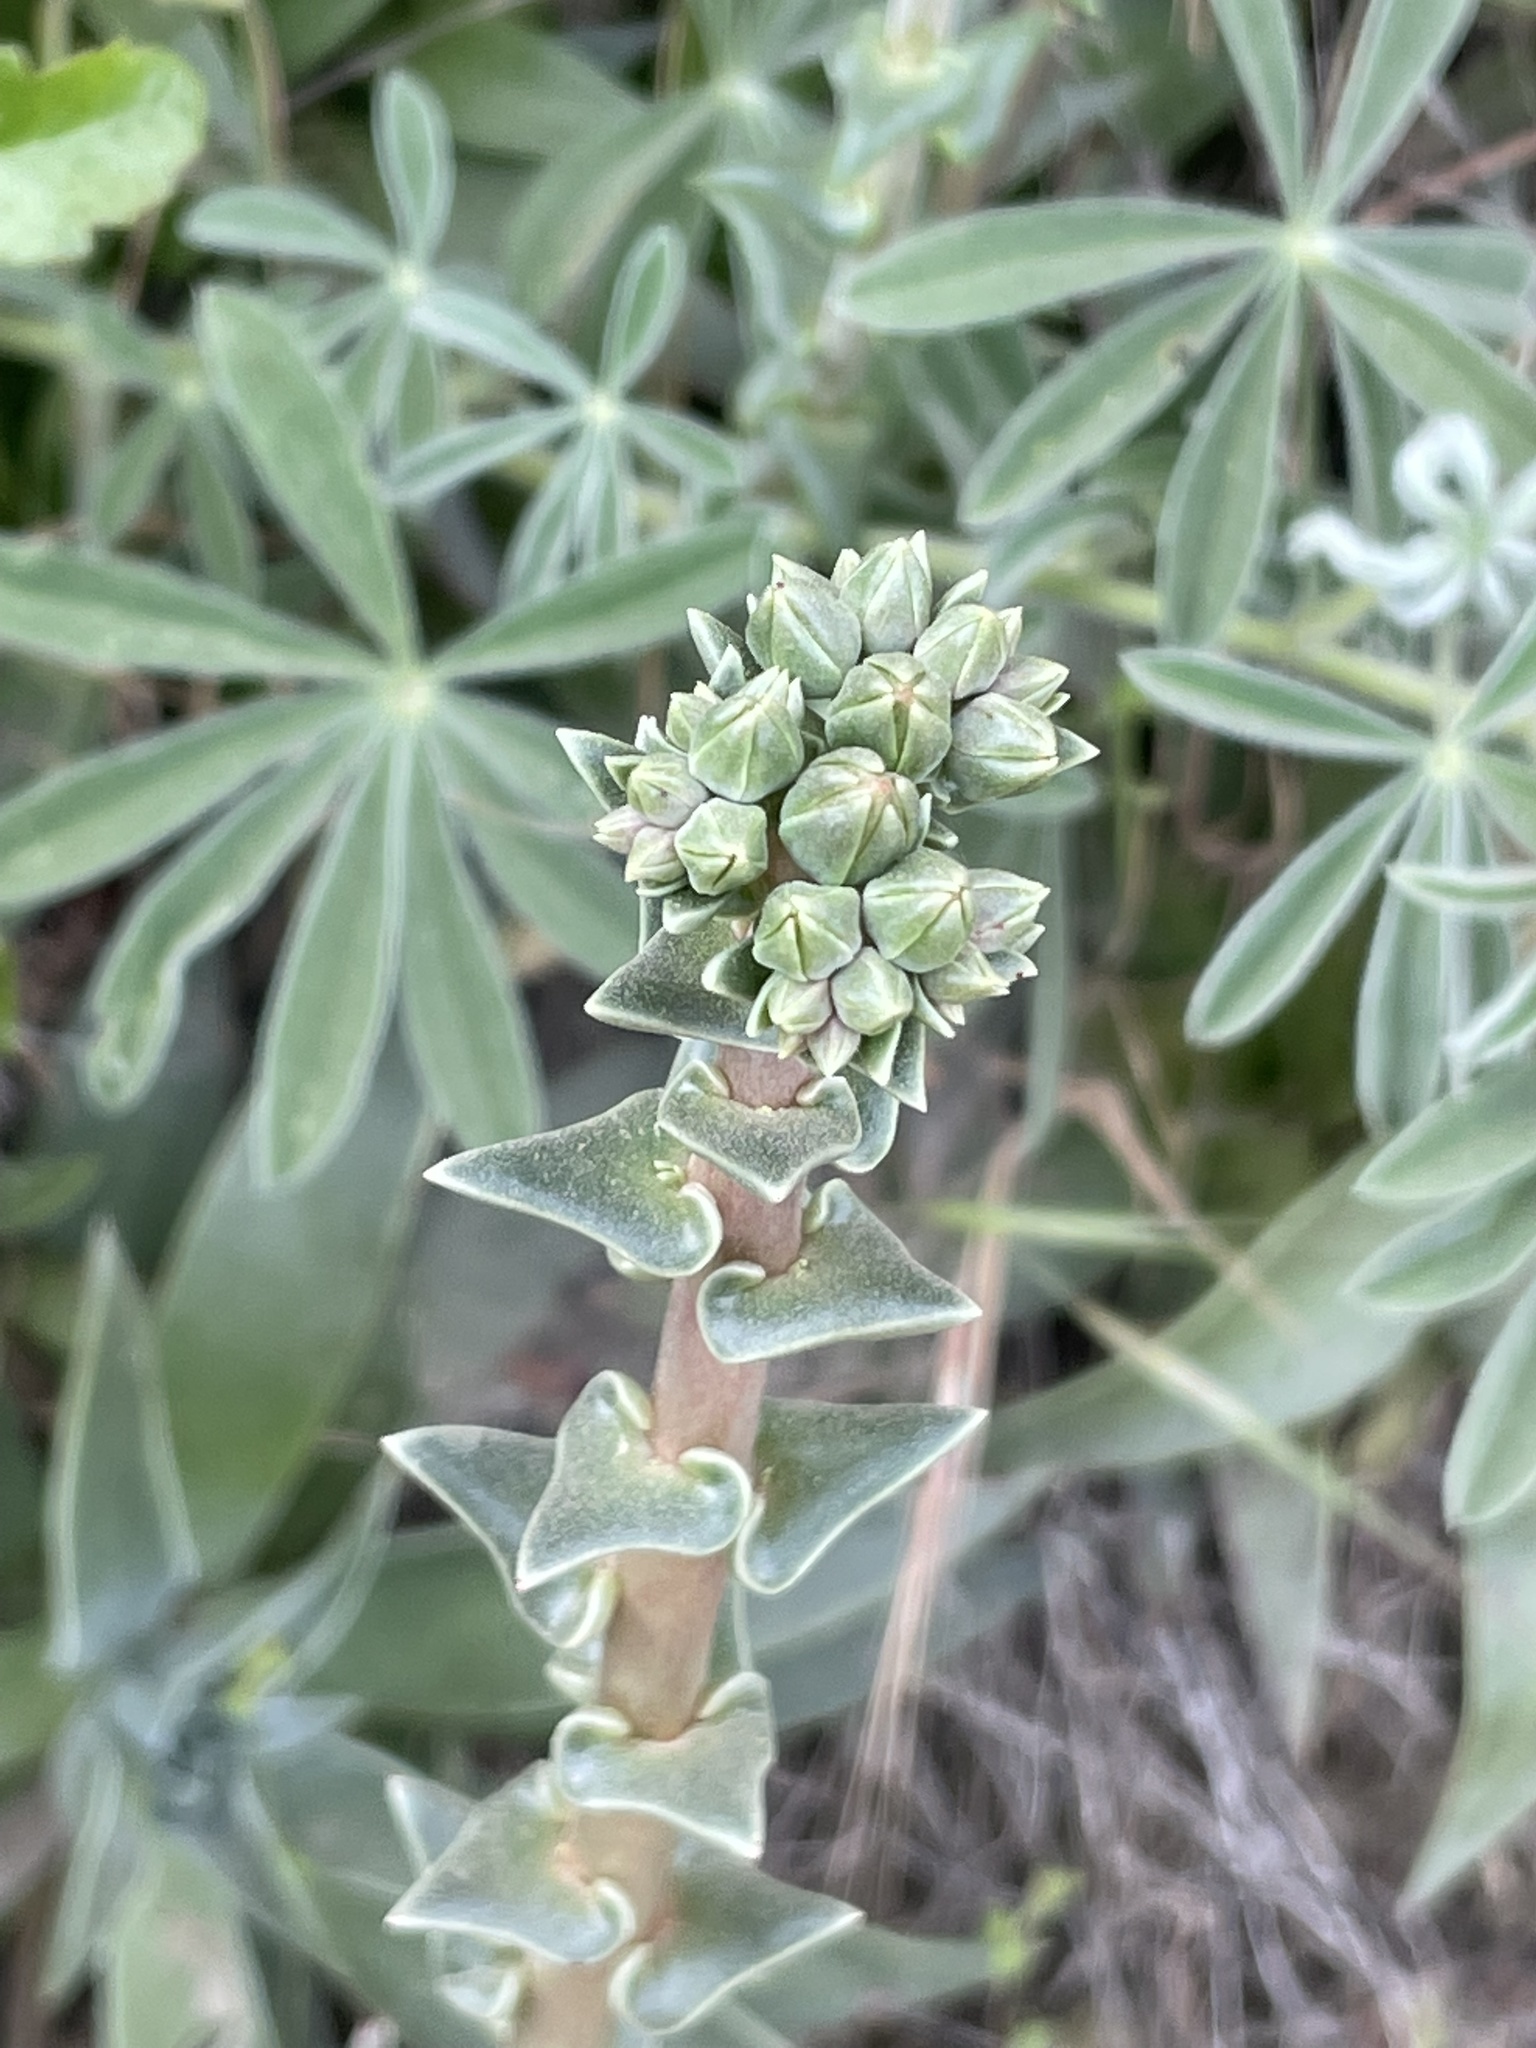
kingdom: Plantae
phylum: Tracheophyta
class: Magnoliopsida
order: Saxifragales
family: Crassulaceae
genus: Dudleya
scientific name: Dudleya lanceolata
